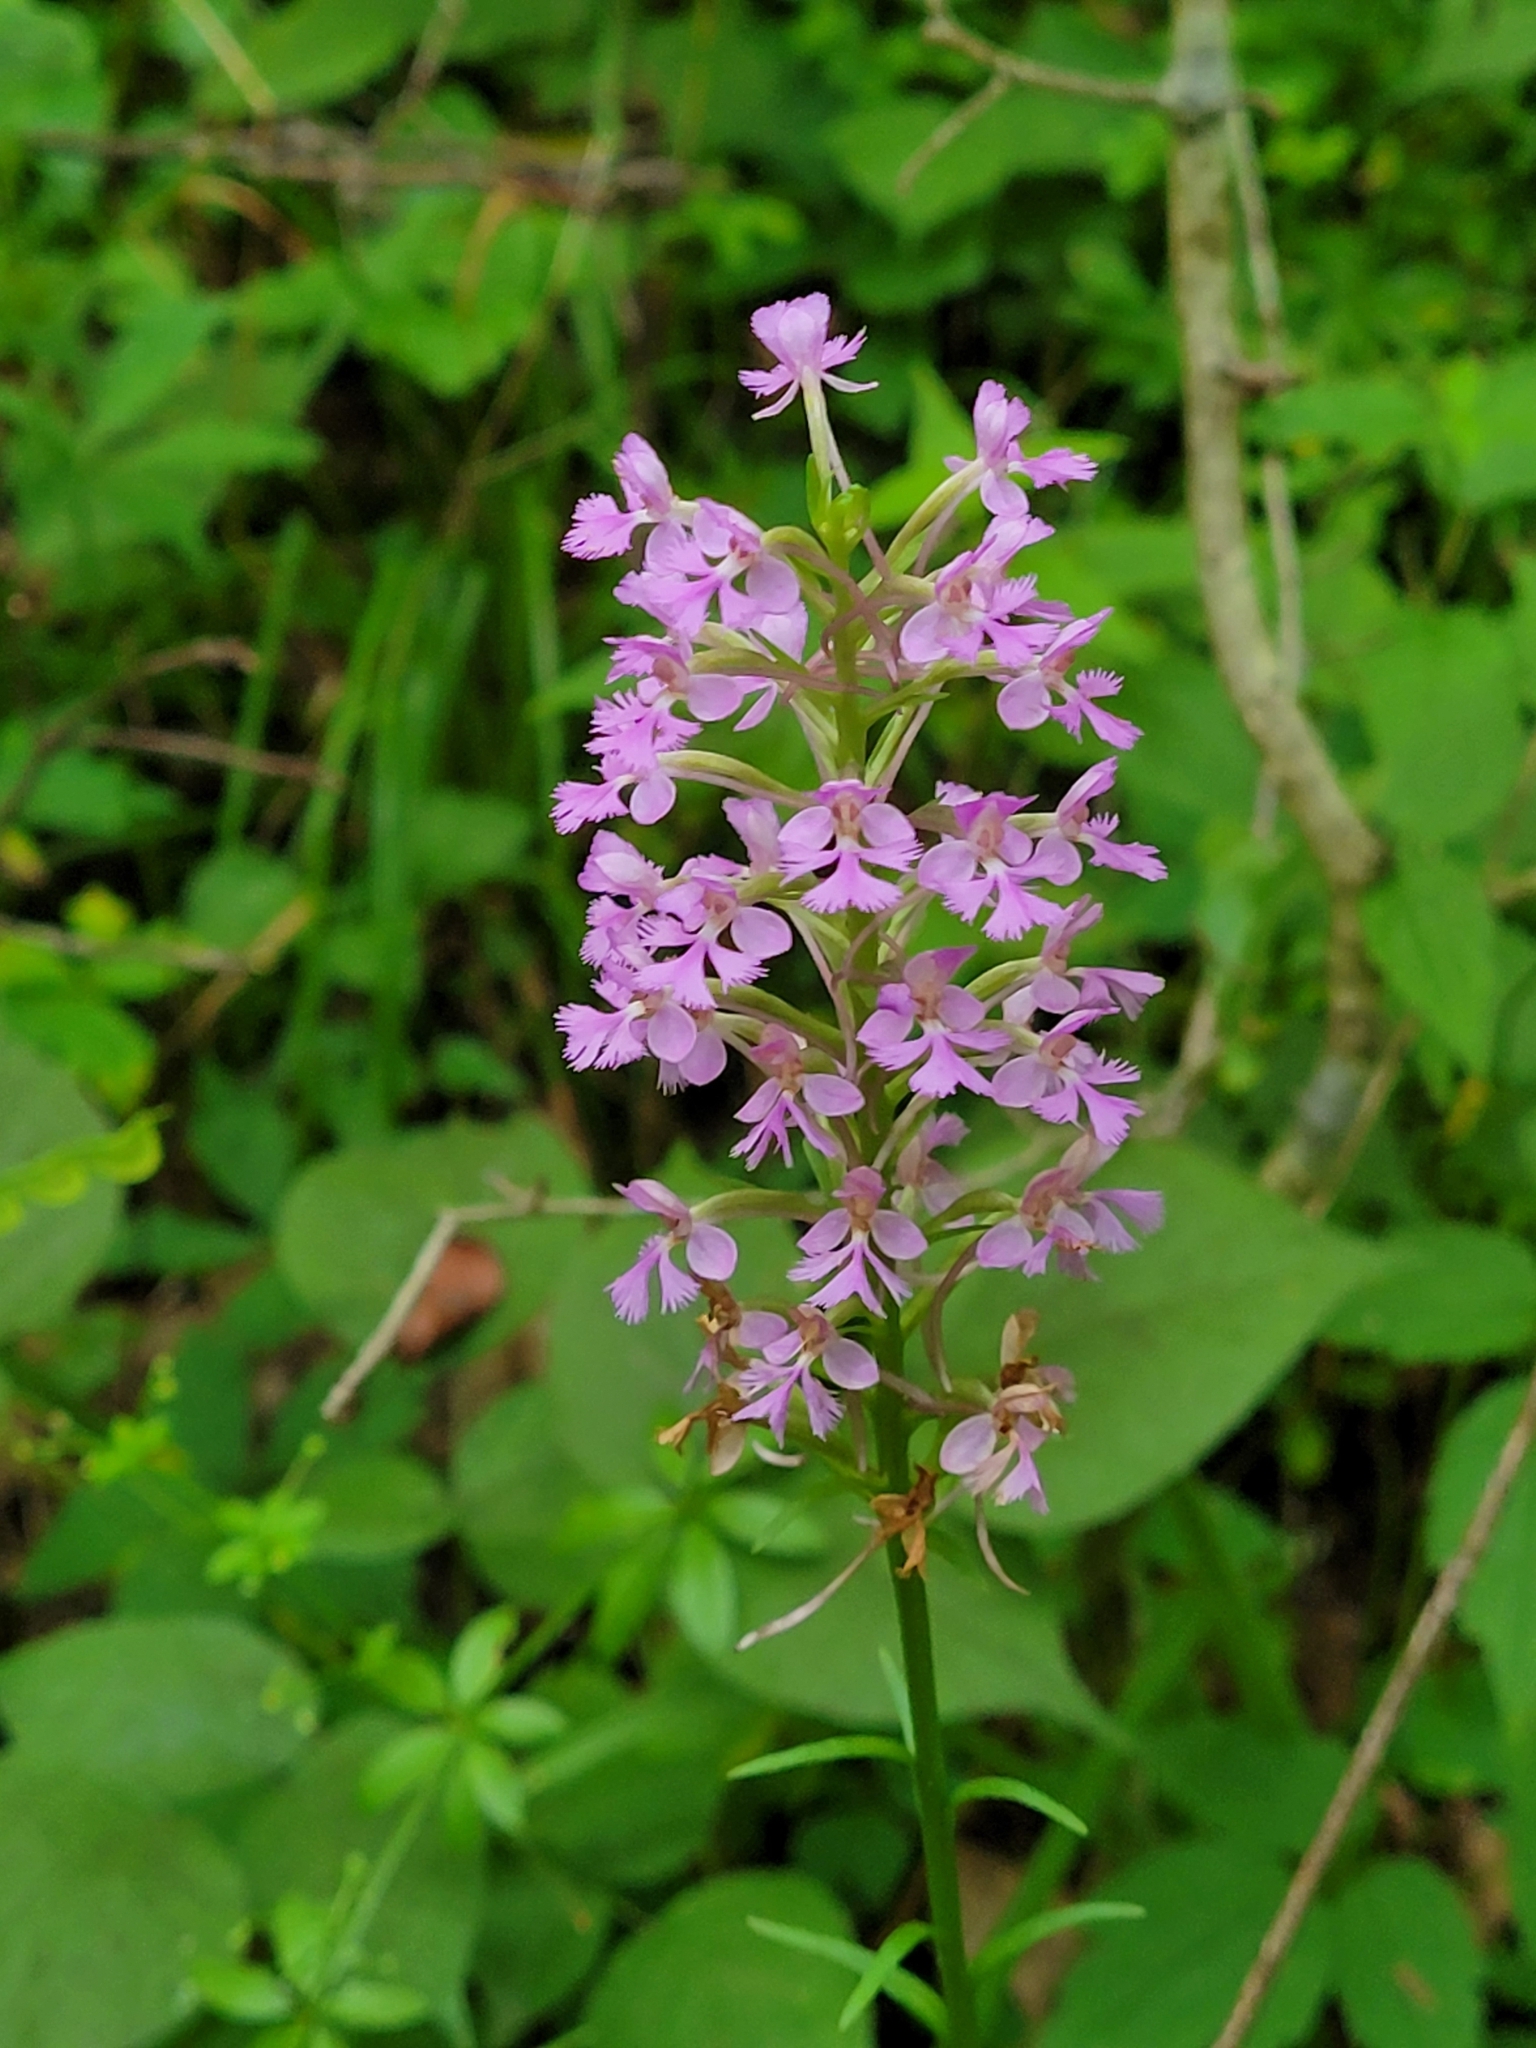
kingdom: Plantae
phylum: Tracheophyta
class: Liliopsida
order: Asparagales
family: Orchidaceae
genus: Platanthera
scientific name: Platanthera psycodes
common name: Lesser purple fringed orchid
